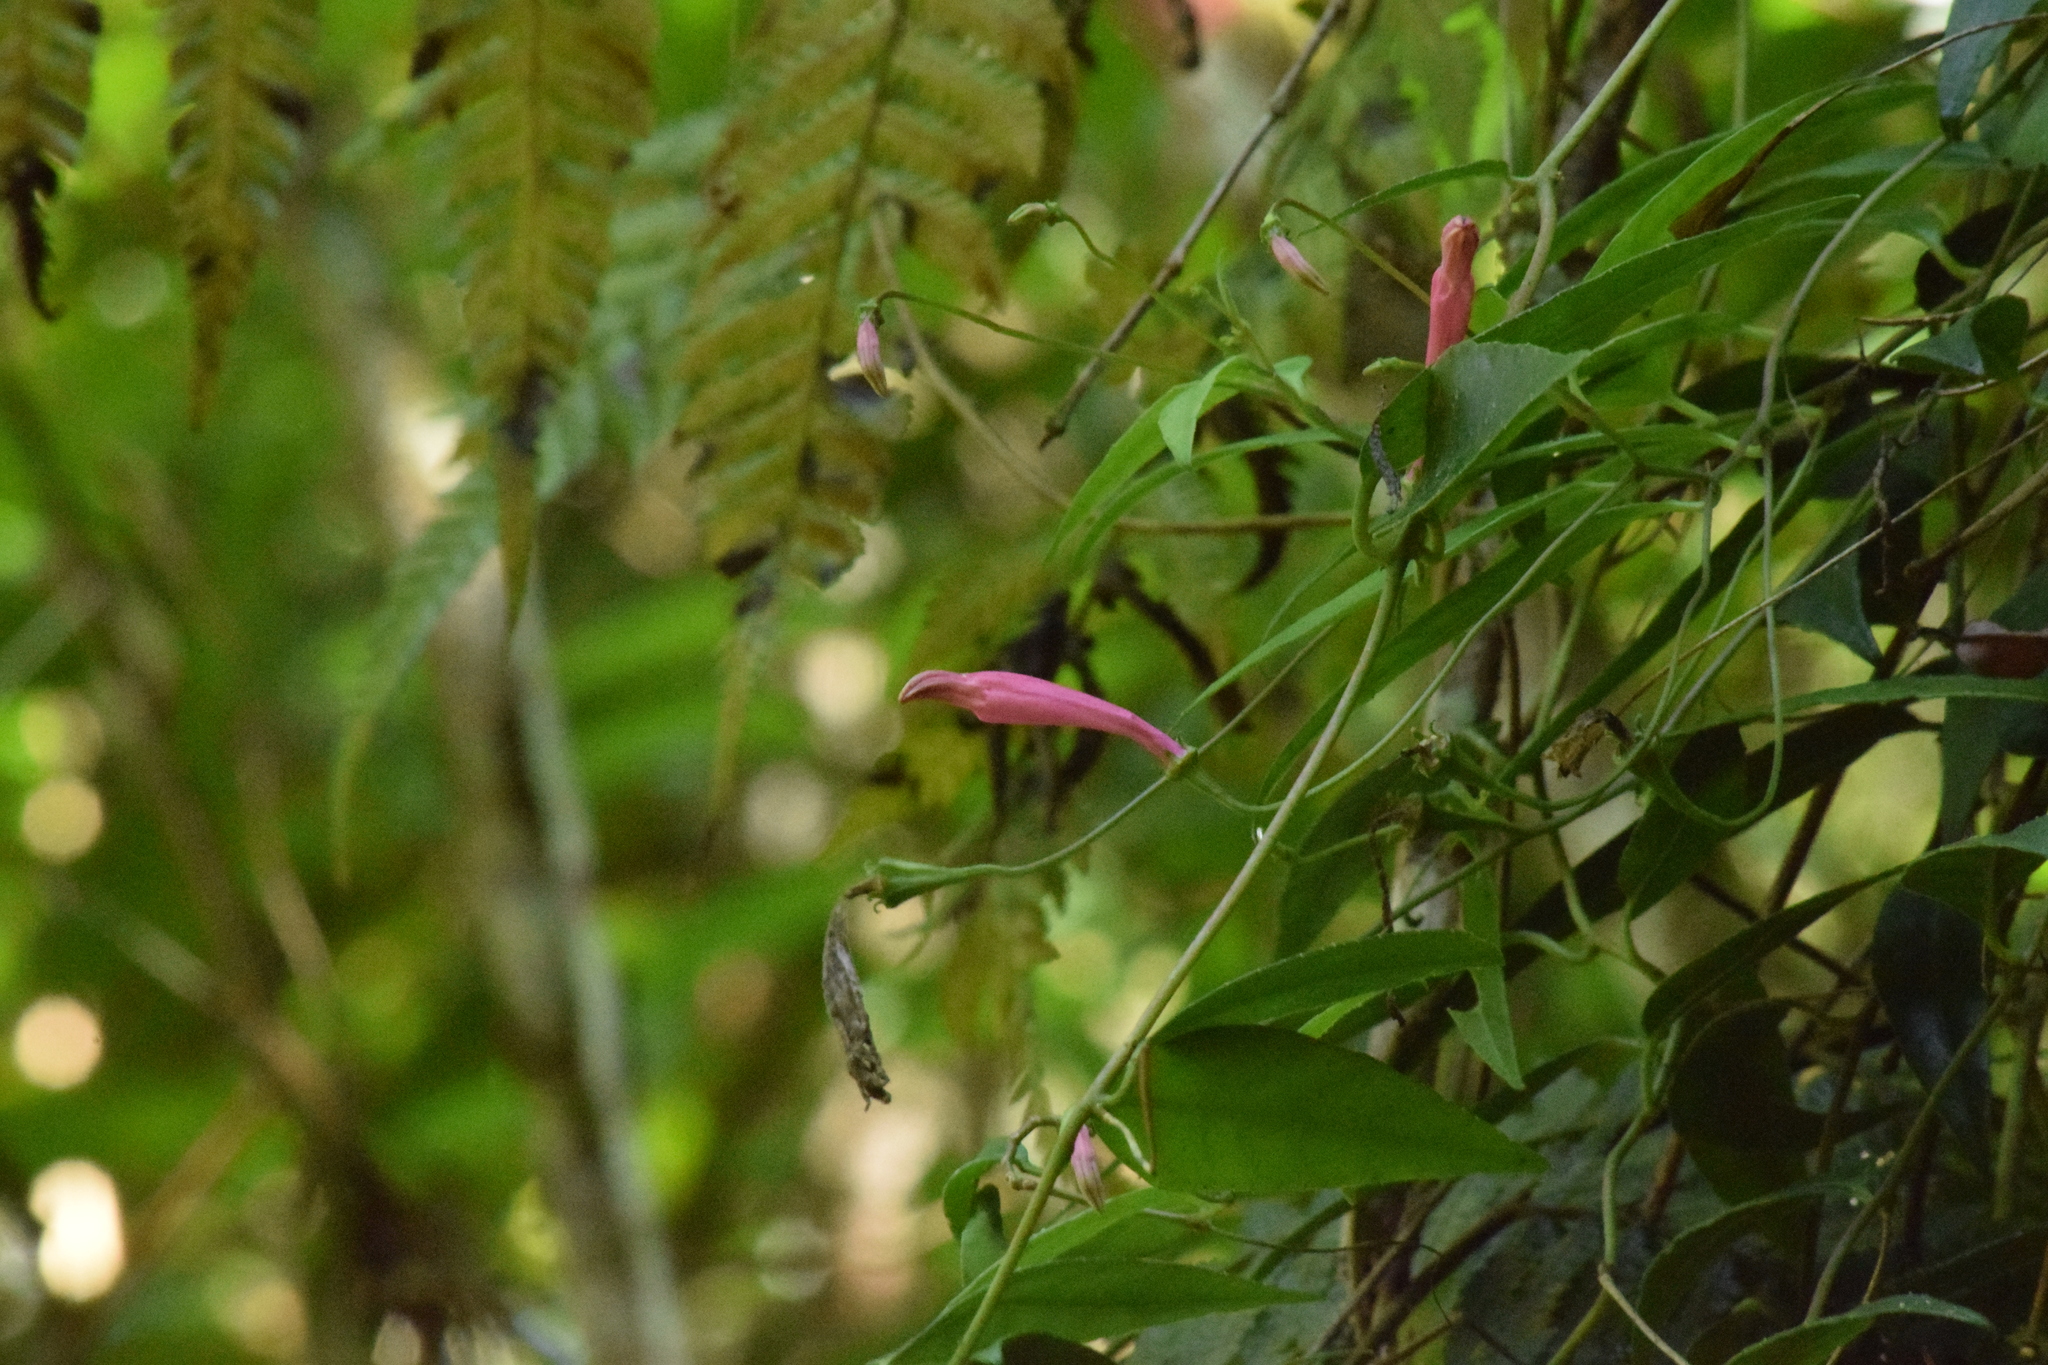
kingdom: Plantae
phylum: Tracheophyta
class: Magnoliopsida
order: Asterales
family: Campanulaceae
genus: Siphocampylus
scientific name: Siphocampylus convolvulaceus
